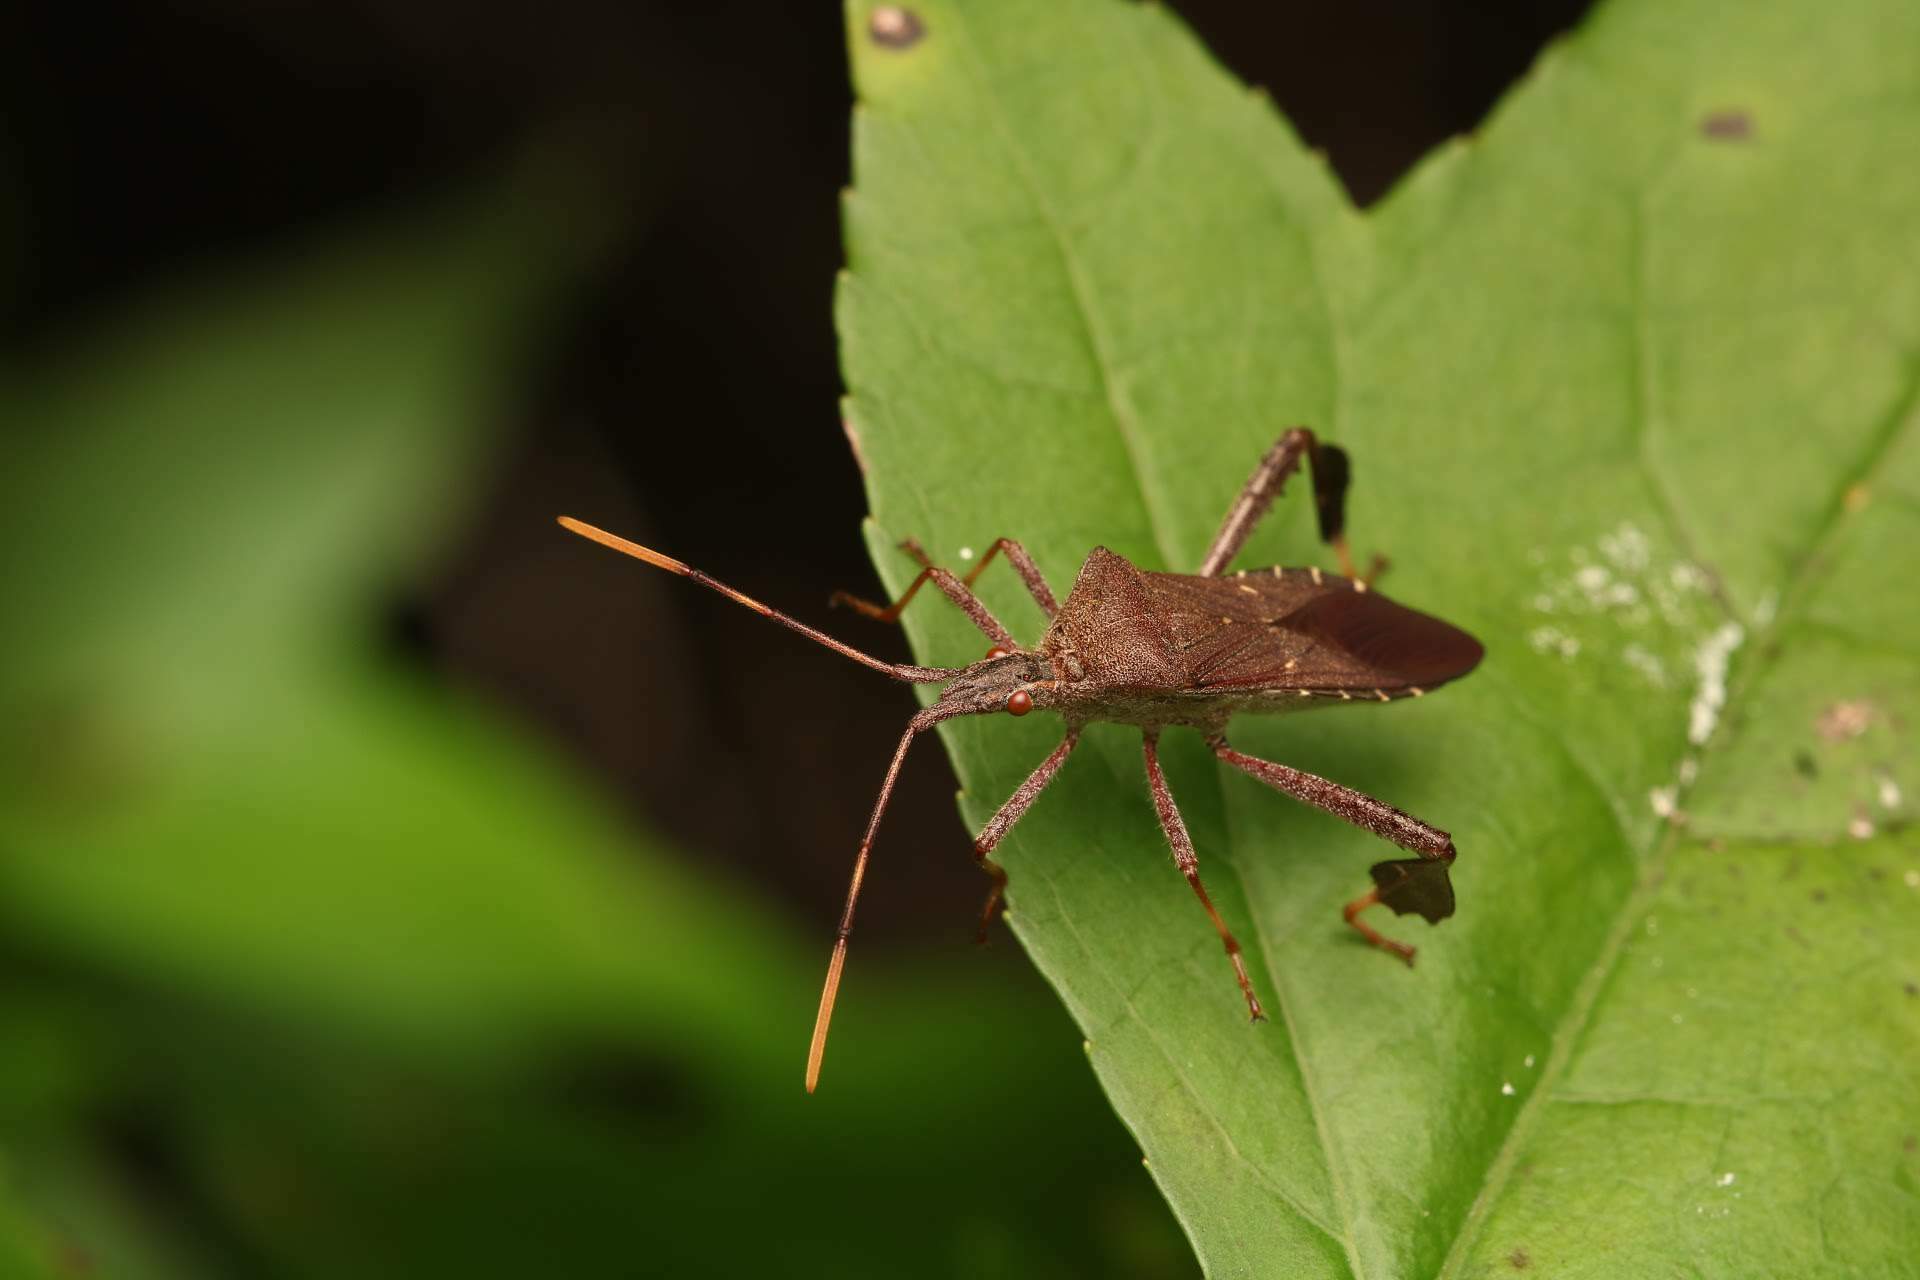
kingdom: Animalia
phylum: Arthropoda
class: Insecta
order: Hemiptera
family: Coreidae
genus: Leptoglossus
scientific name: Leptoglossus oppositus
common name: Northern leaf-footed bug
